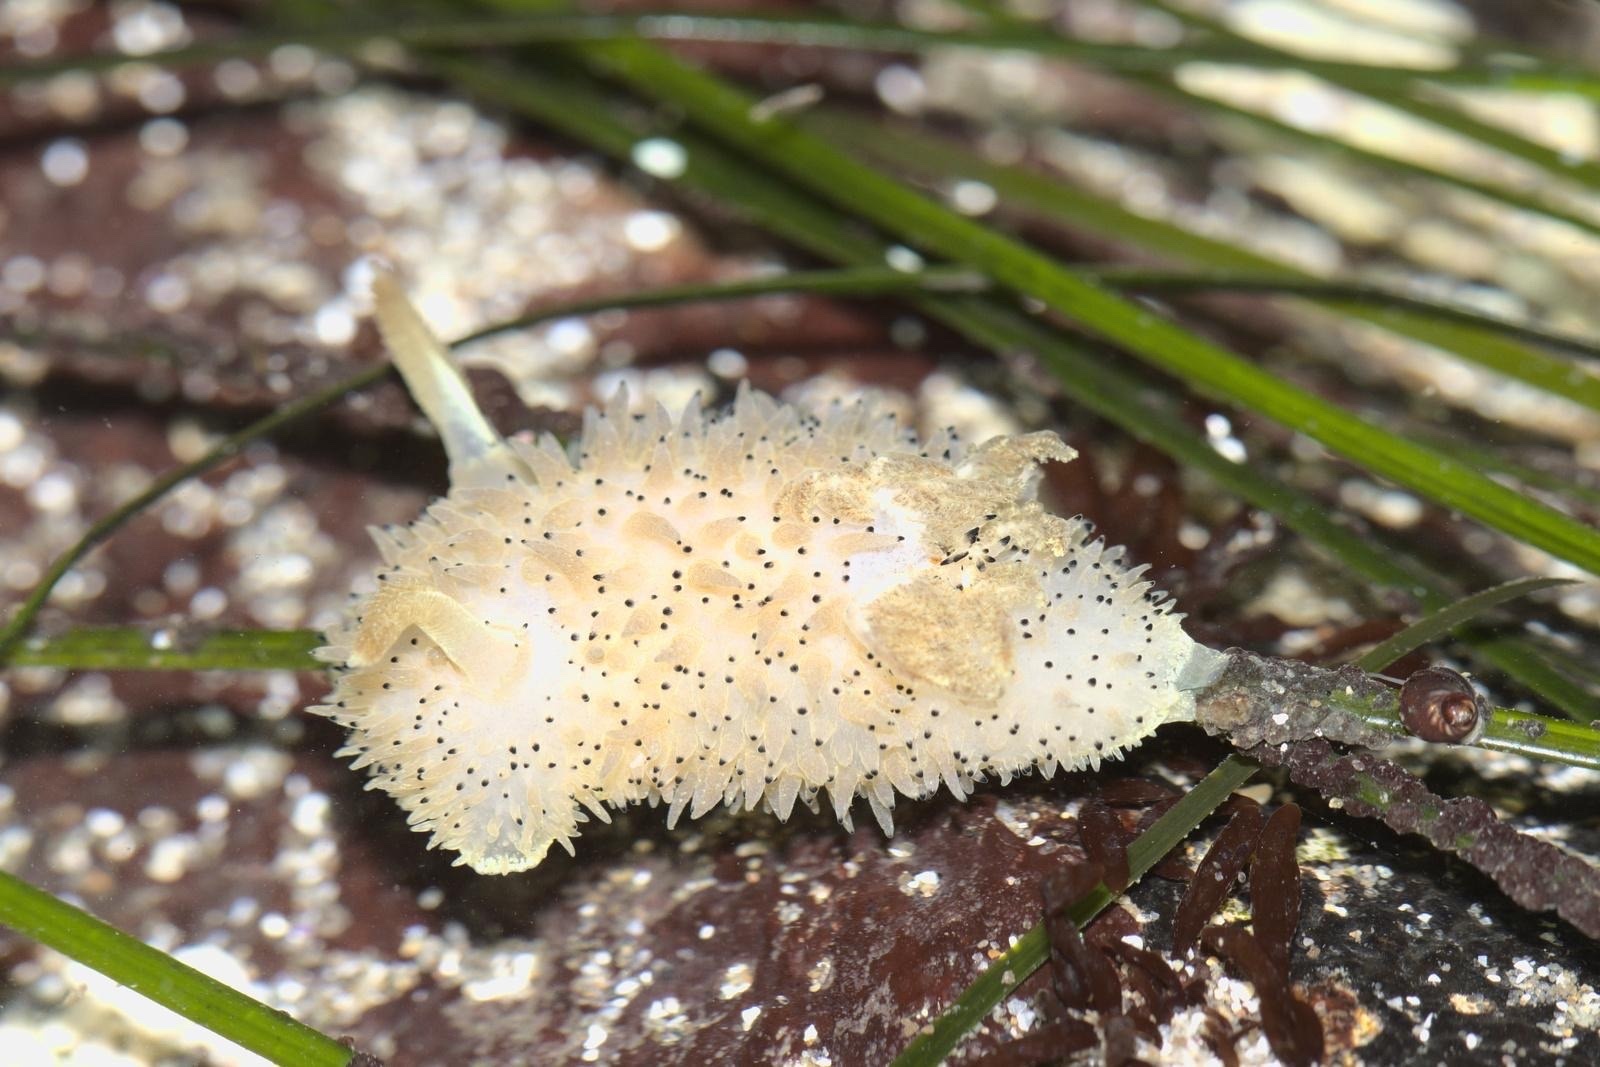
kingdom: Animalia
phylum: Mollusca
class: Gastropoda
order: Nudibranchia
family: Onchidorididae
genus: Acanthodoris
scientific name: Acanthodoris rhodoceras
